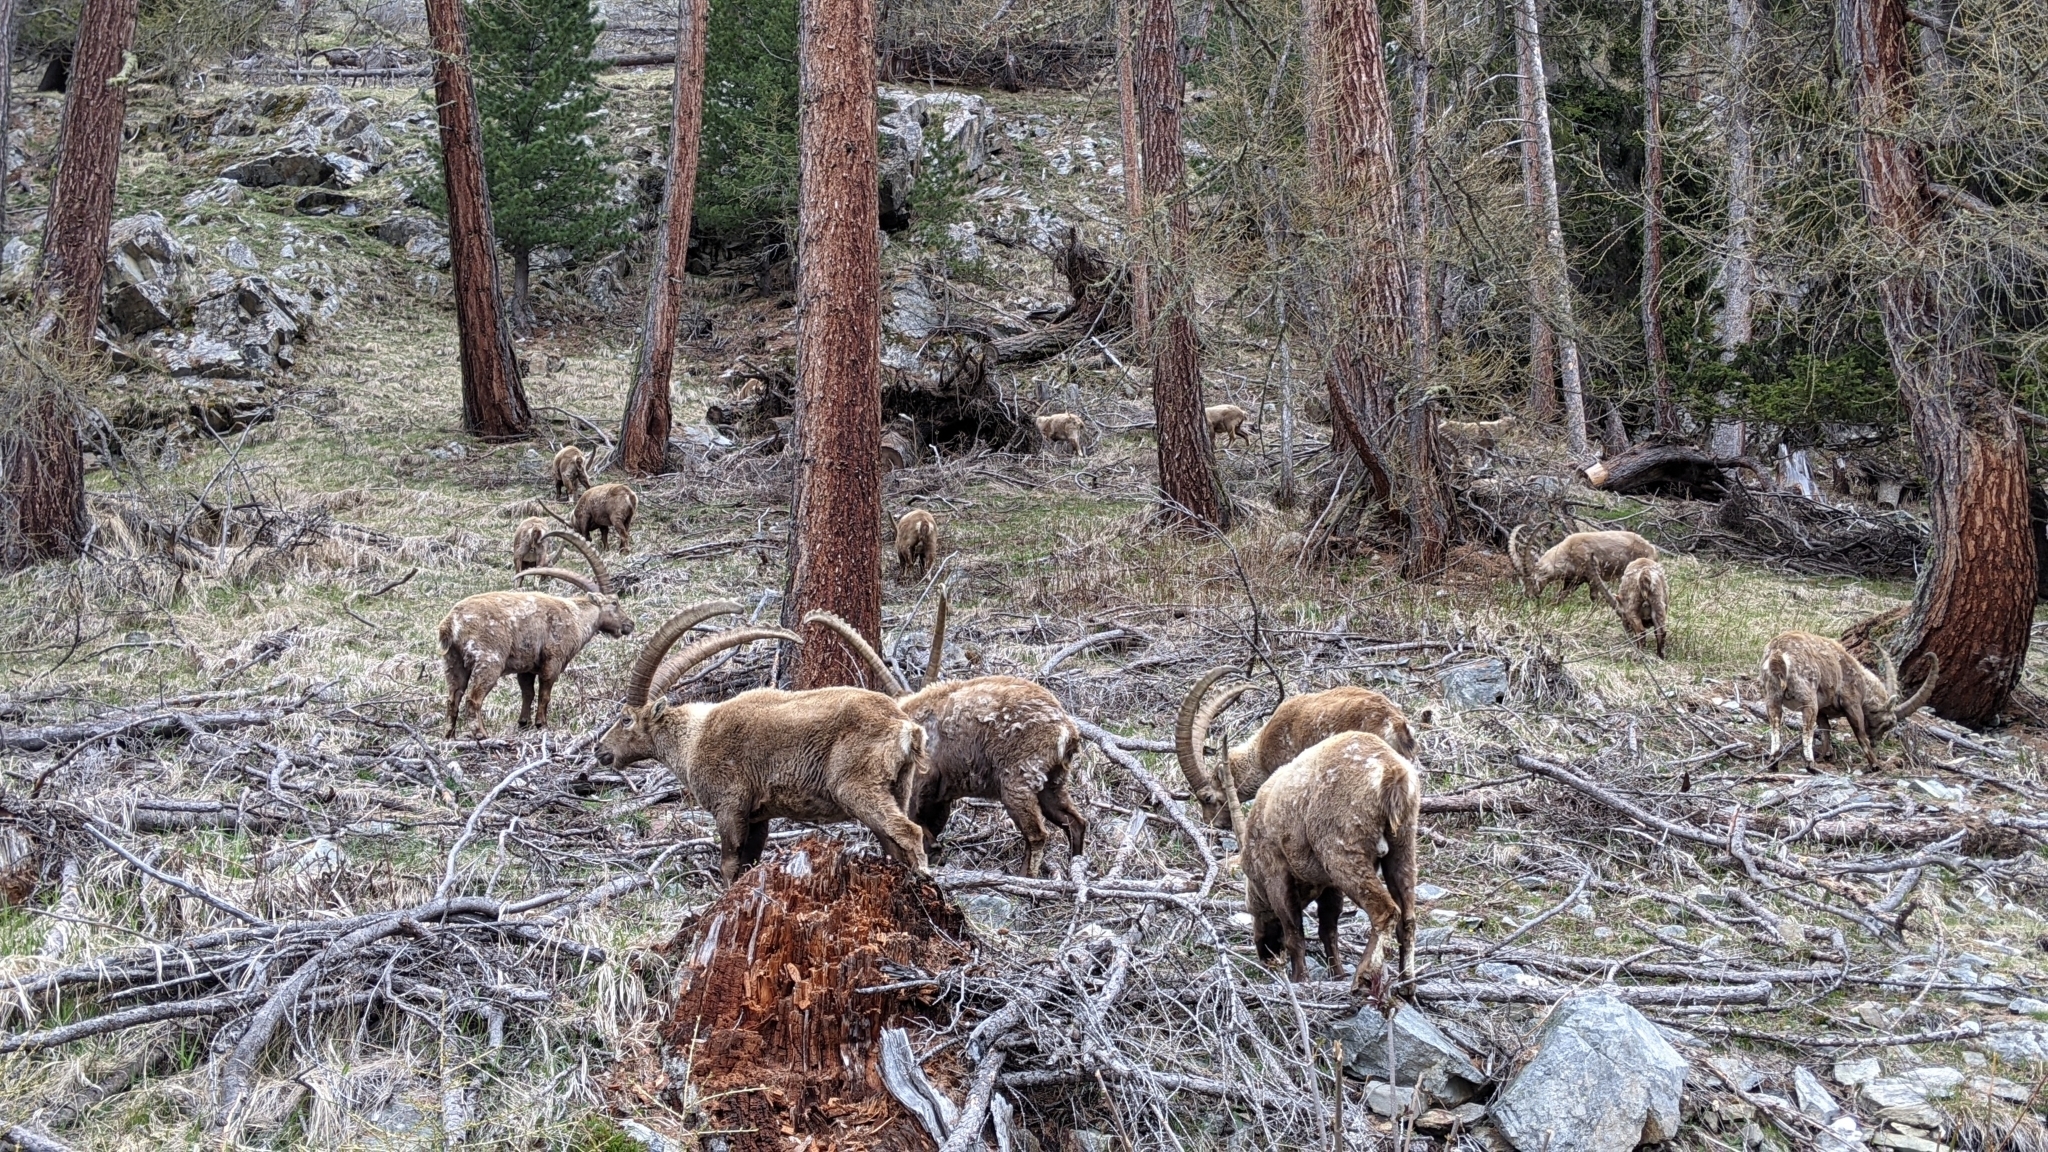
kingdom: Animalia
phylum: Chordata
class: Mammalia
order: Artiodactyla
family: Bovidae
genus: Capra
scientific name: Capra ibex
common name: Alpine ibex
